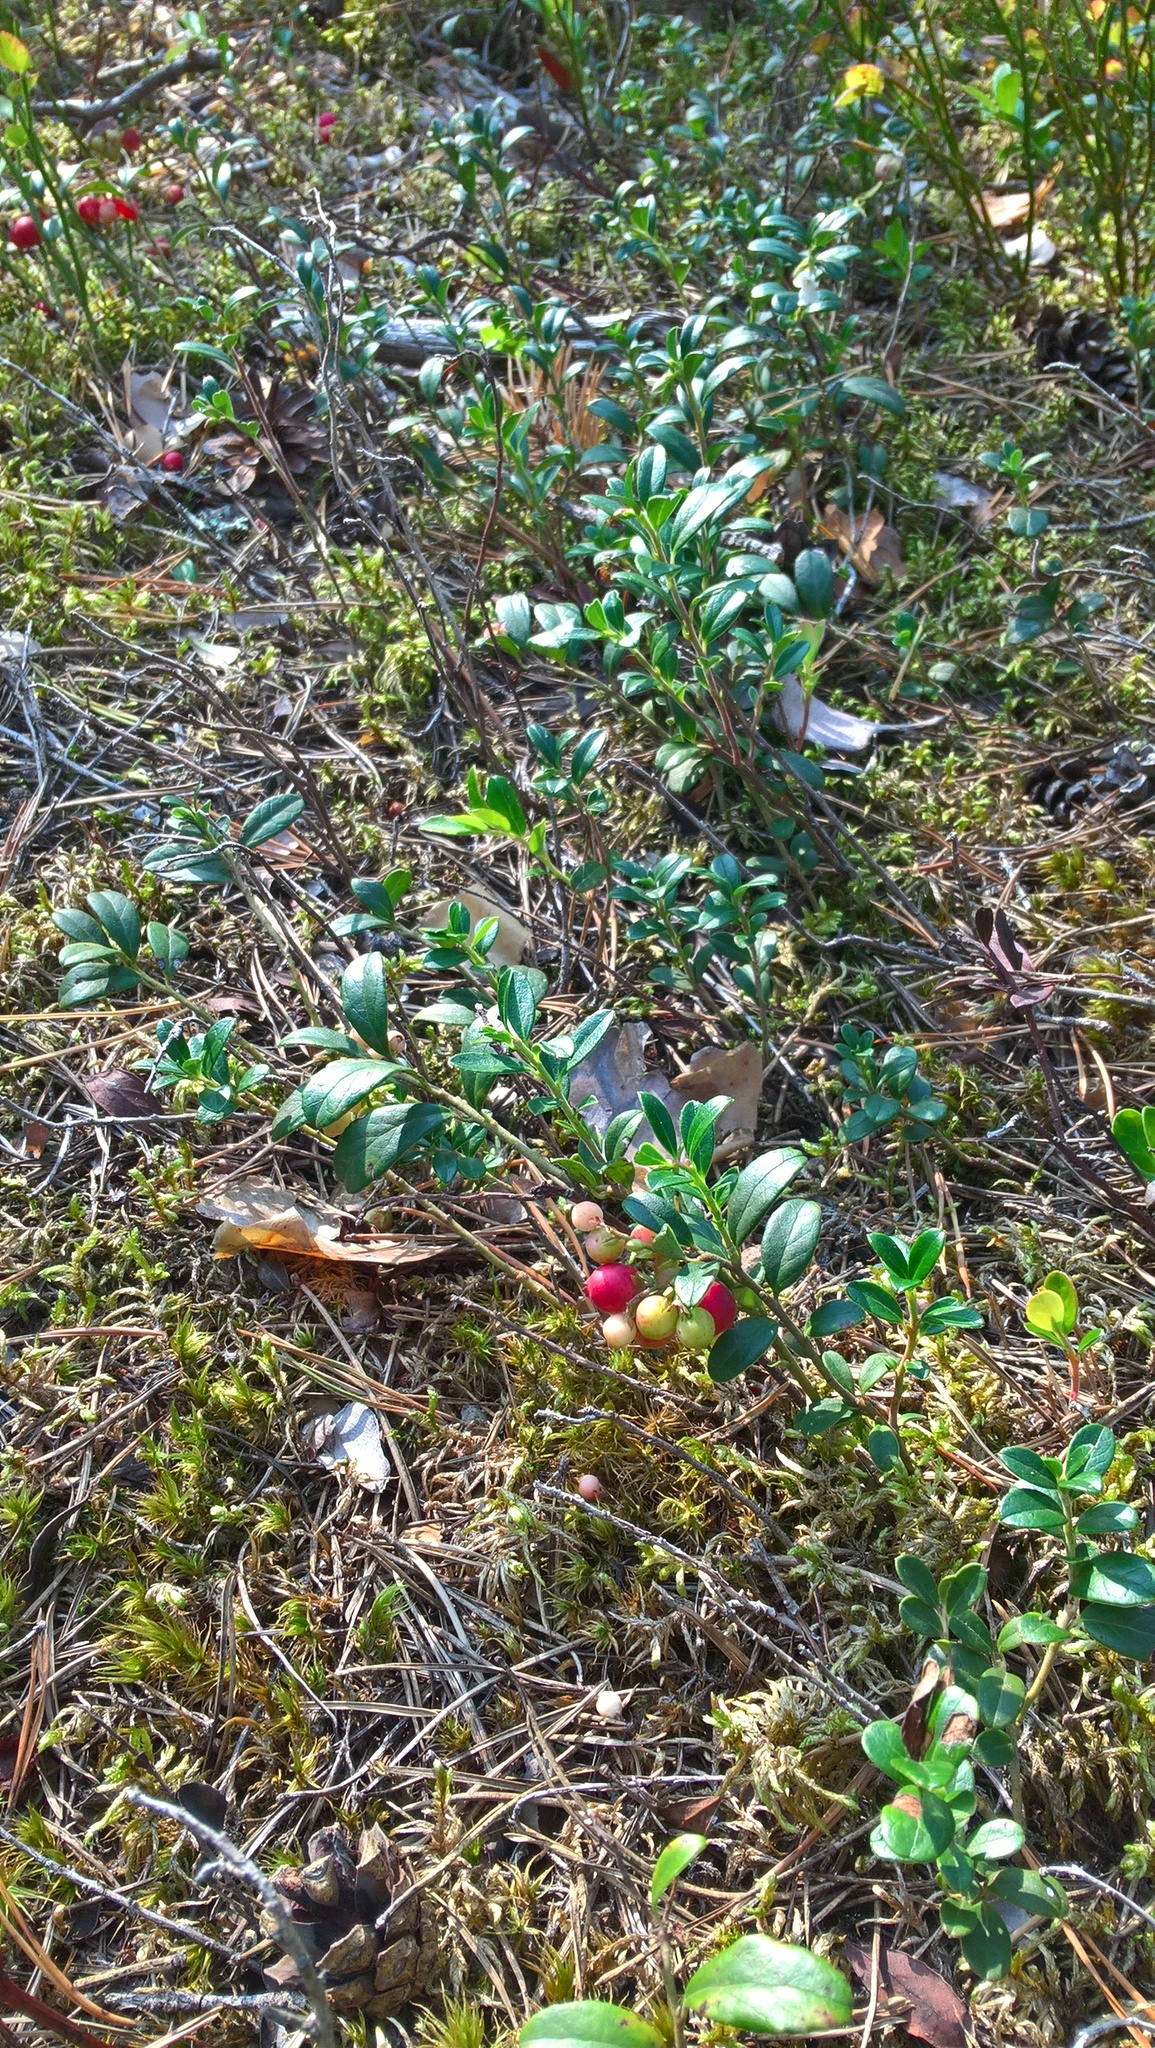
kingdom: Plantae
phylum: Tracheophyta
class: Magnoliopsida
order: Ericales
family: Ericaceae
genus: Vaccinium
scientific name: Vaccinium vitis-idaea
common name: Cowberry
